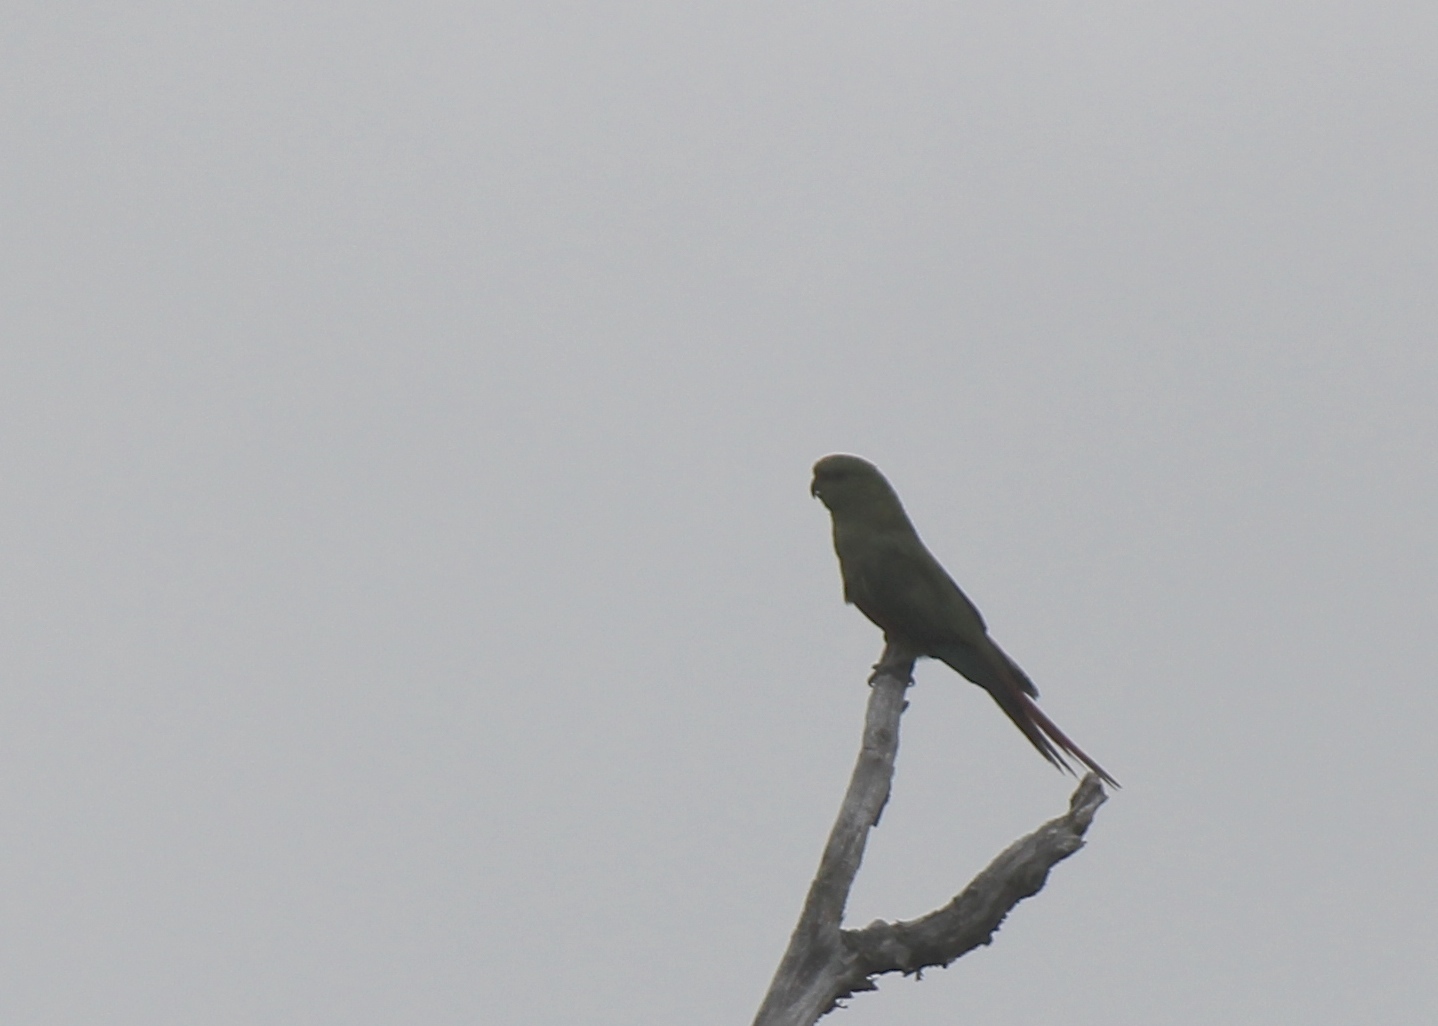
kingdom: Animalia
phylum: Chordata
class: Aves
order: Psittaciformes
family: Psittacidae
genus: Enicognathus
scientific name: Enicognathus ferrugineus
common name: Austral parakeet
